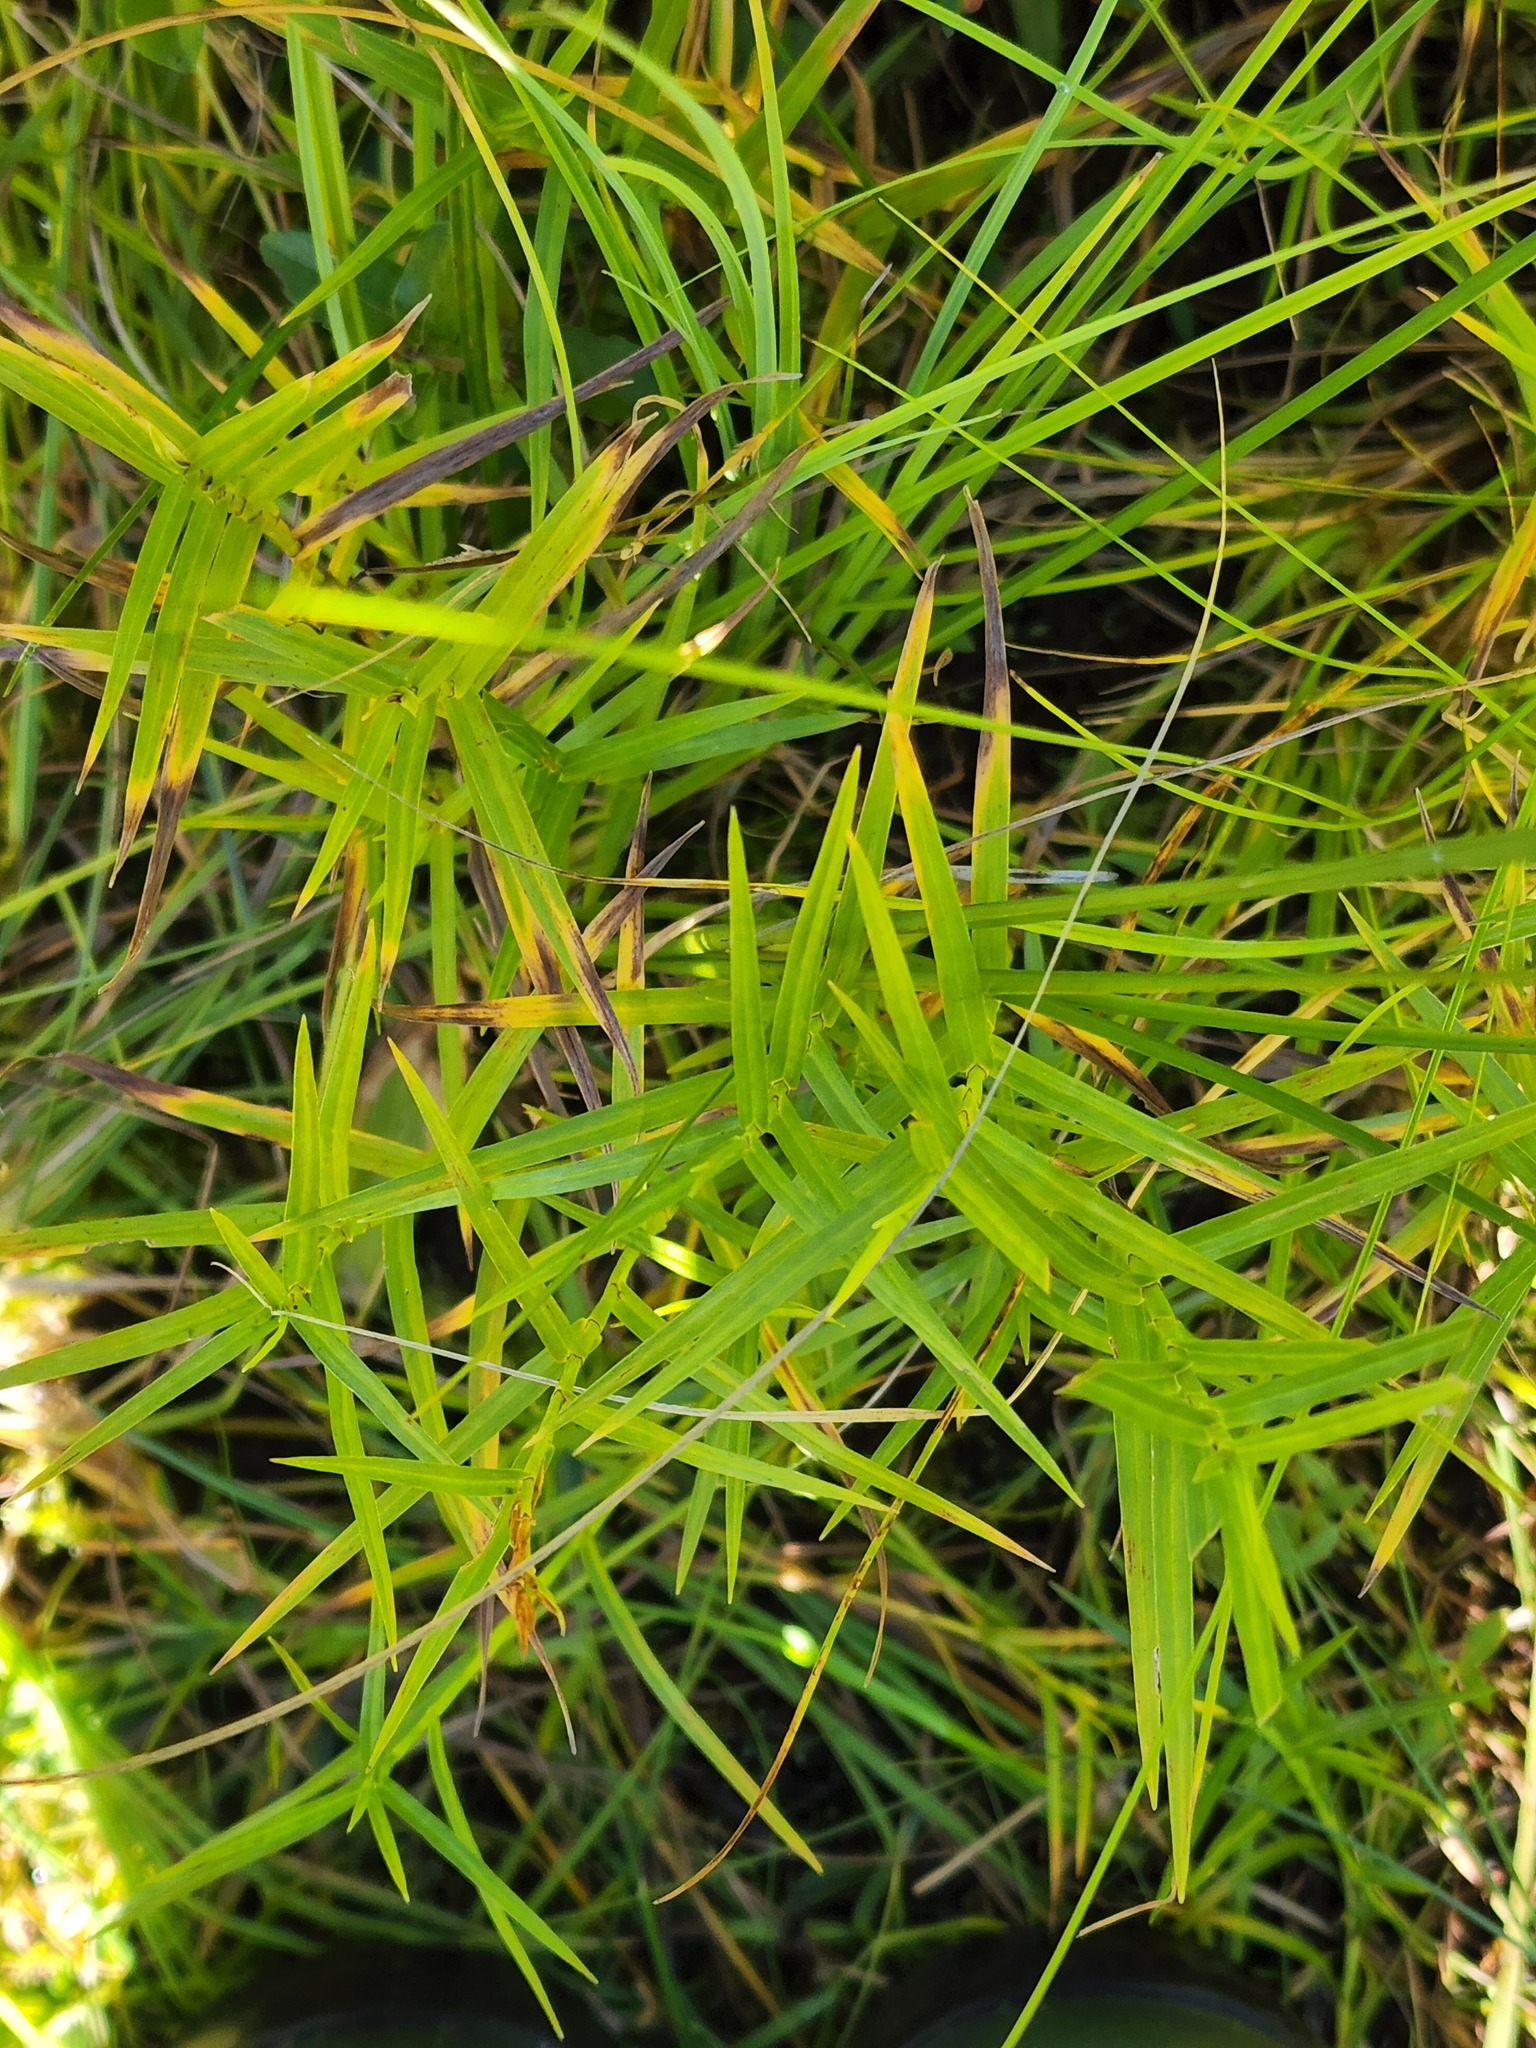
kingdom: Plantae
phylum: Tracheophyta
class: Liliopsida
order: Poales
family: Cyperaceae
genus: Dulichium
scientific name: Dulichium arundinaceum
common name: Three-way sedge
